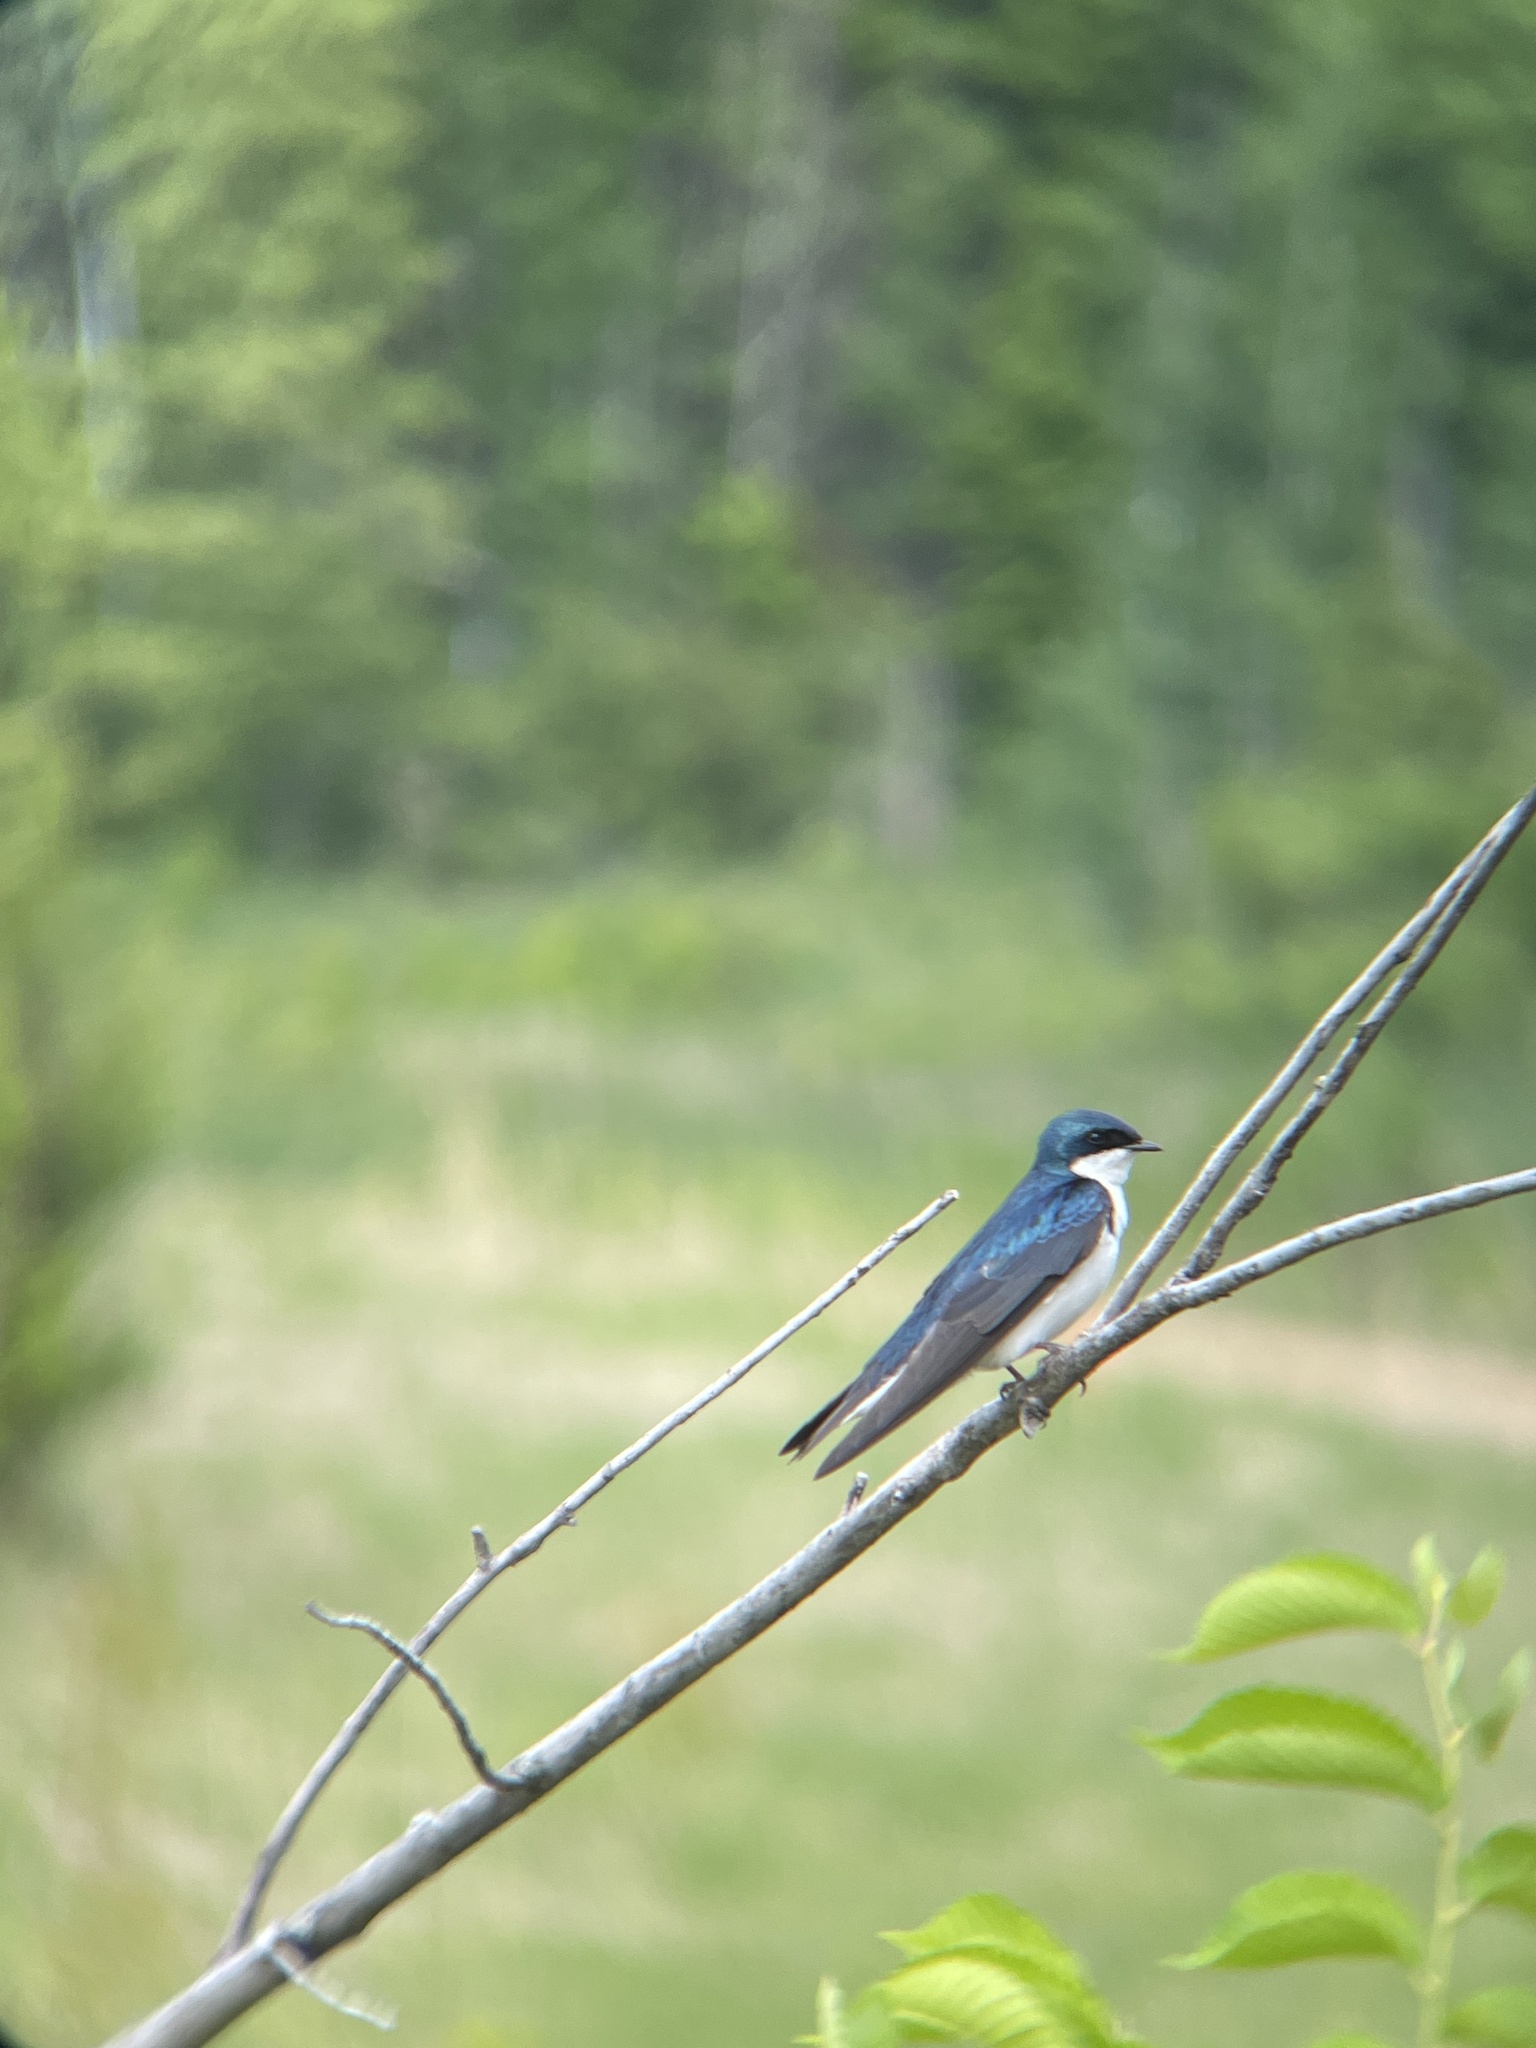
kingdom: Animalia
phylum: Chordata
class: Aves
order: Passeriformes
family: Hirundinidae
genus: Tachycineta
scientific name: Tachycineta bicolor
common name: Tree swallow
